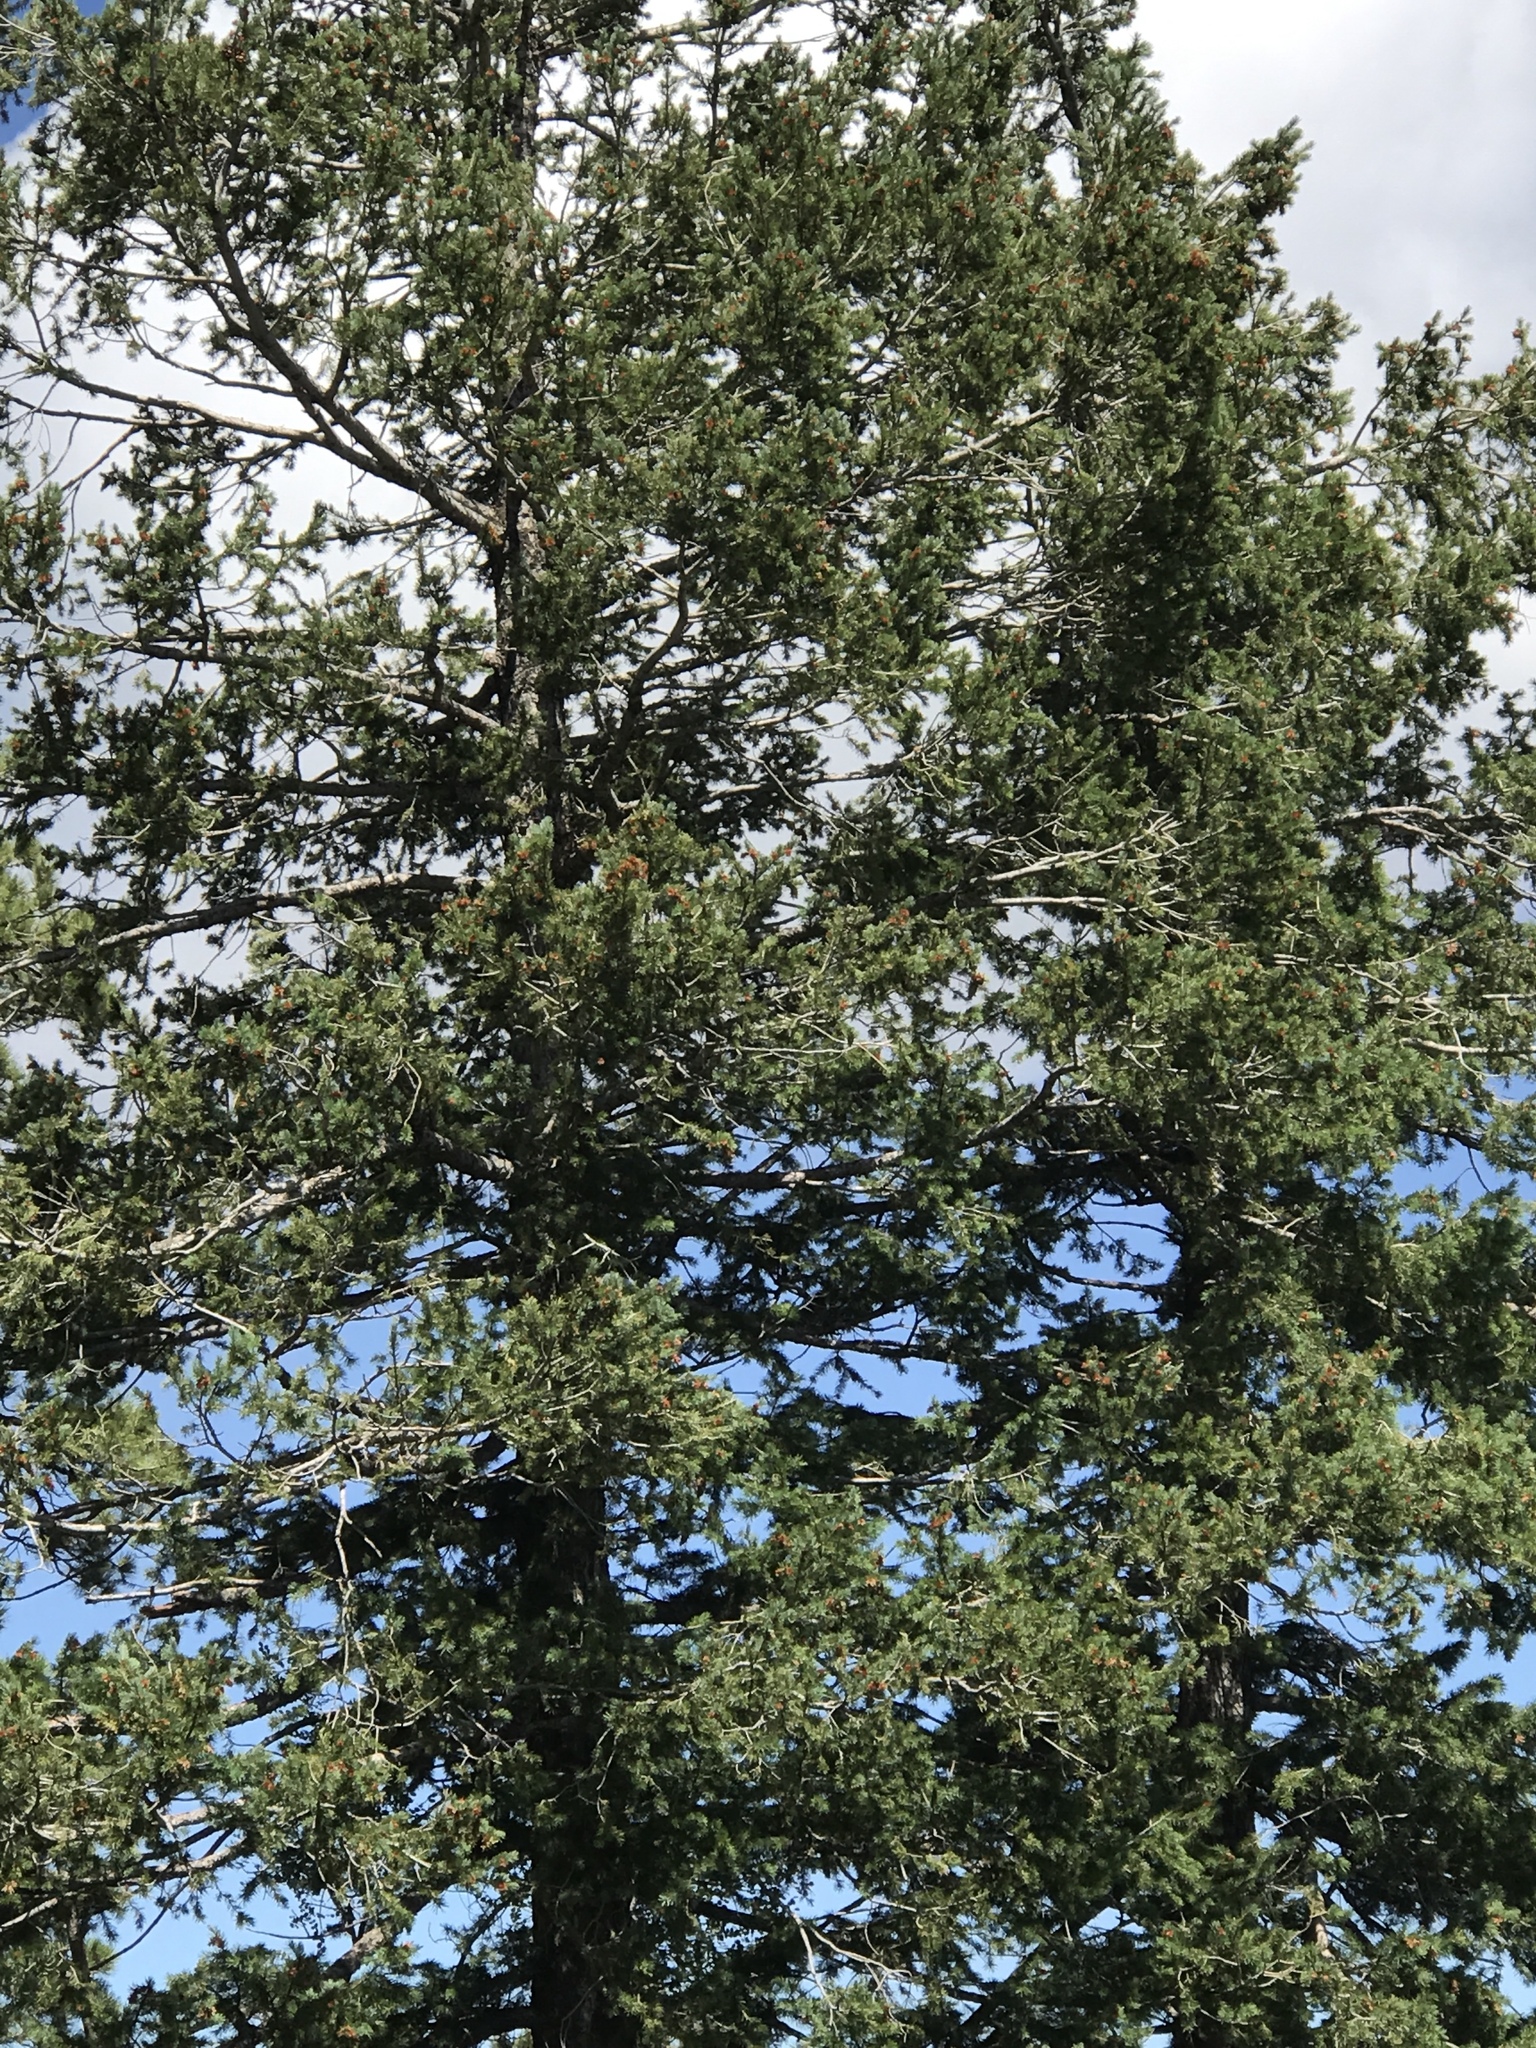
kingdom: Plantae
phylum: Tracheophyta
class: Pinopsida
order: Pinales
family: Pinaceae
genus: Pseudotsuga
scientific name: Pseudotsuga menziesii
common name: Douglas fir
